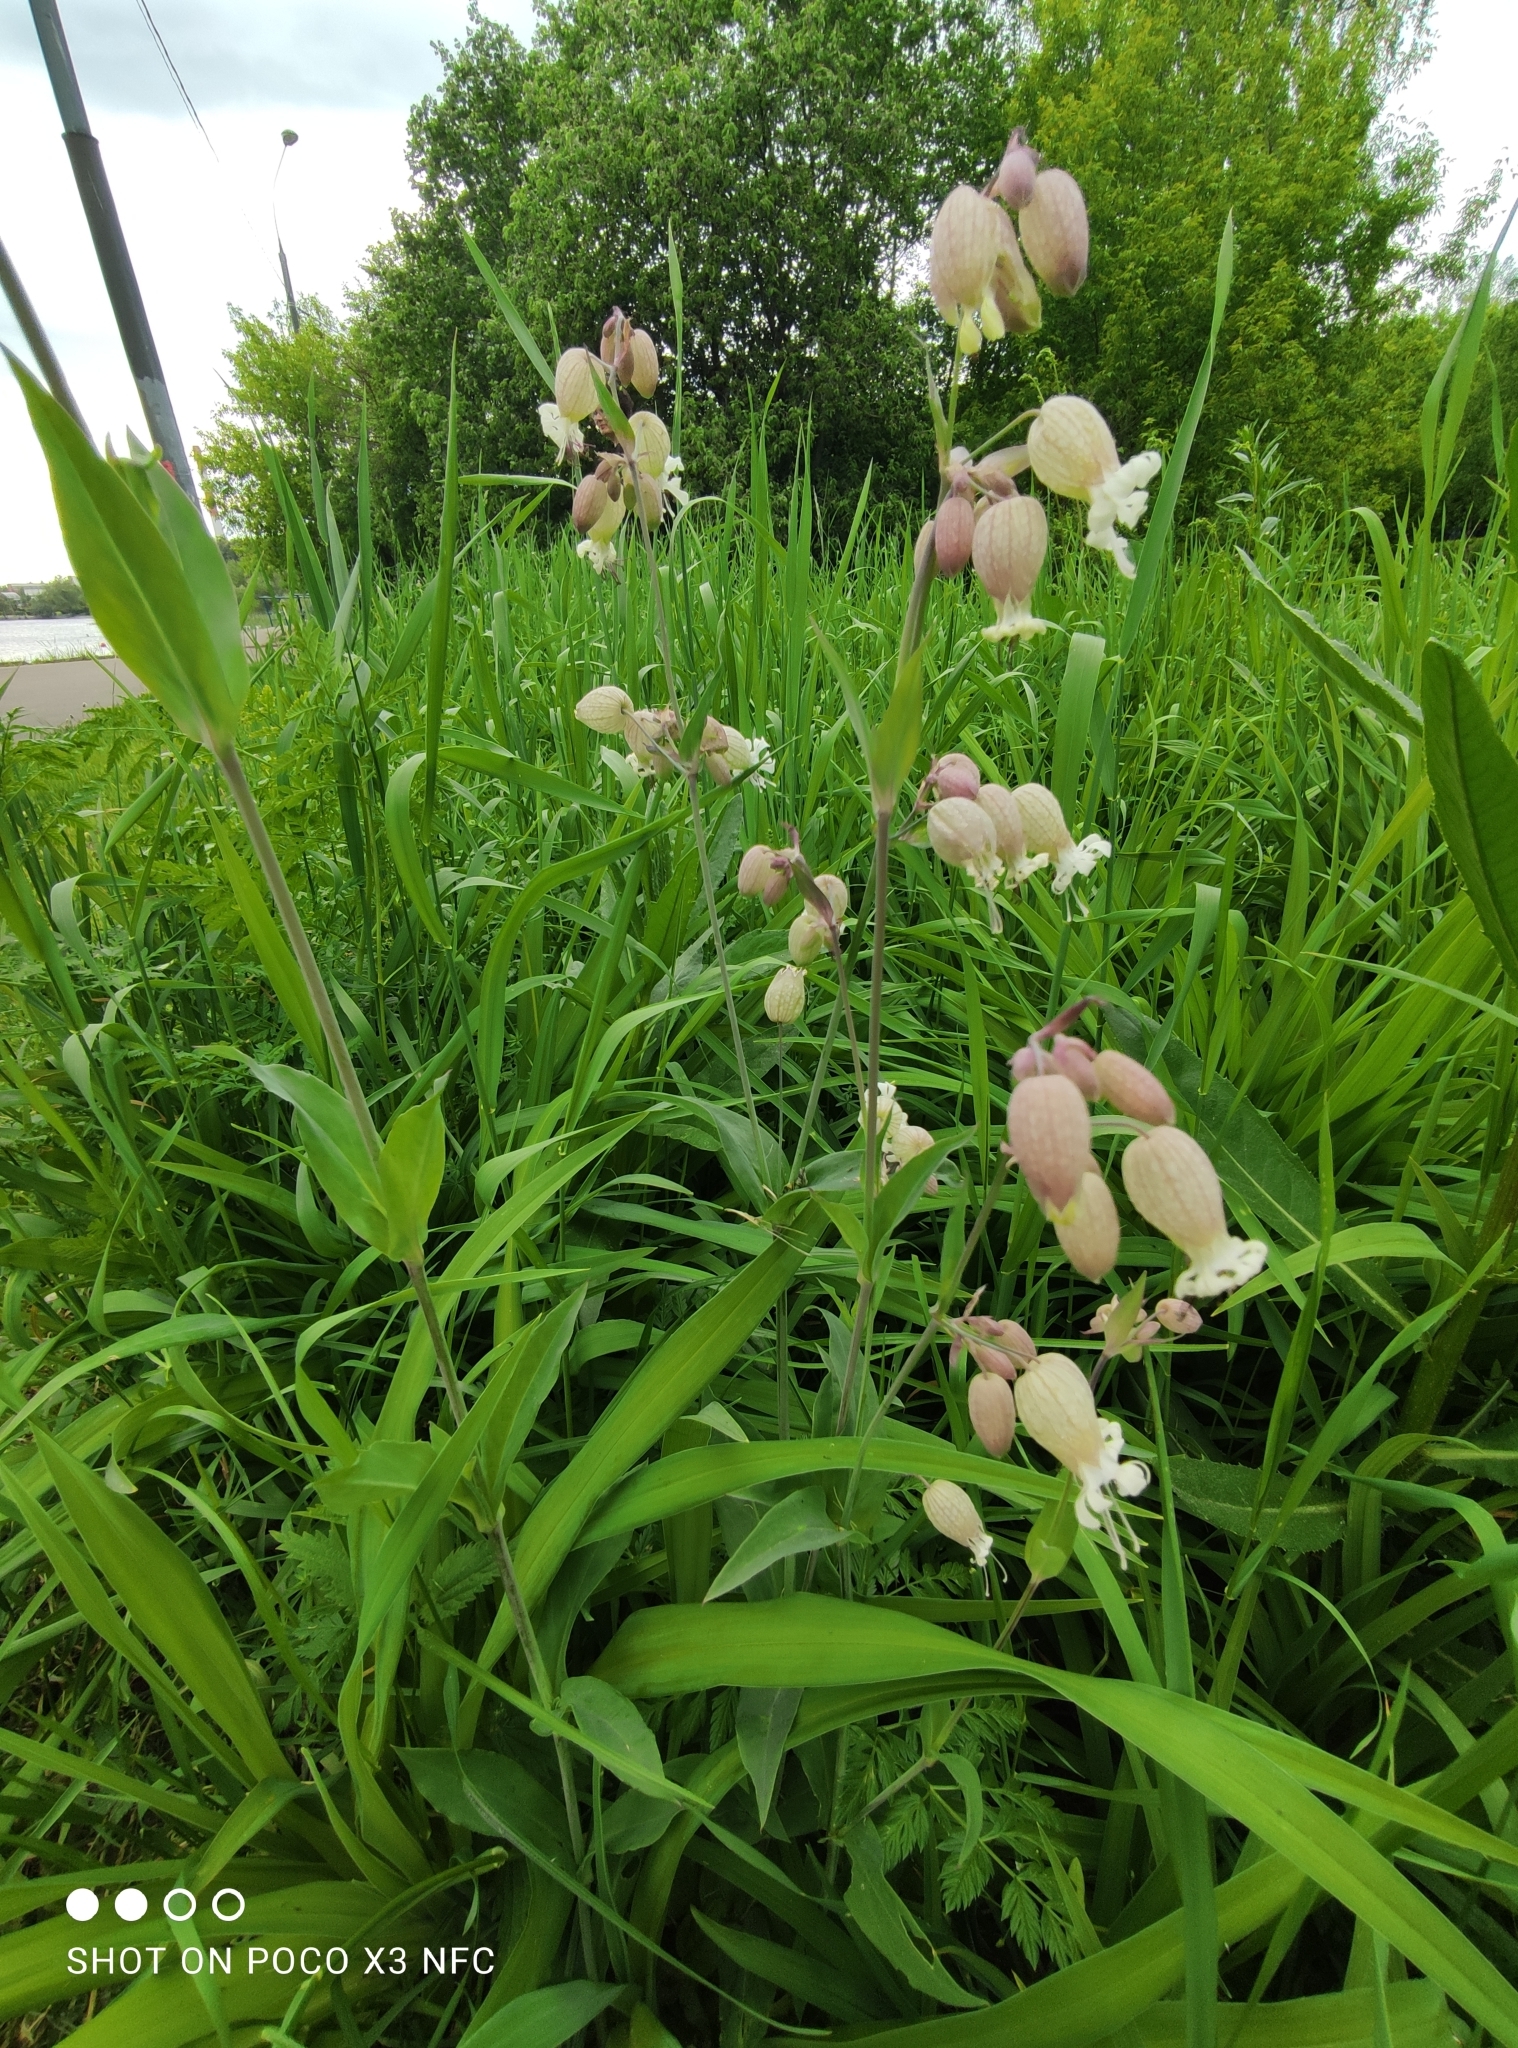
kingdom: Plantae
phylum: Tracheophyta
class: Magnoliopsida
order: Caryophyllales
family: Caryophyllaceae
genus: Silene
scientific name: Silene vulgaris
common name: Bladder campion
